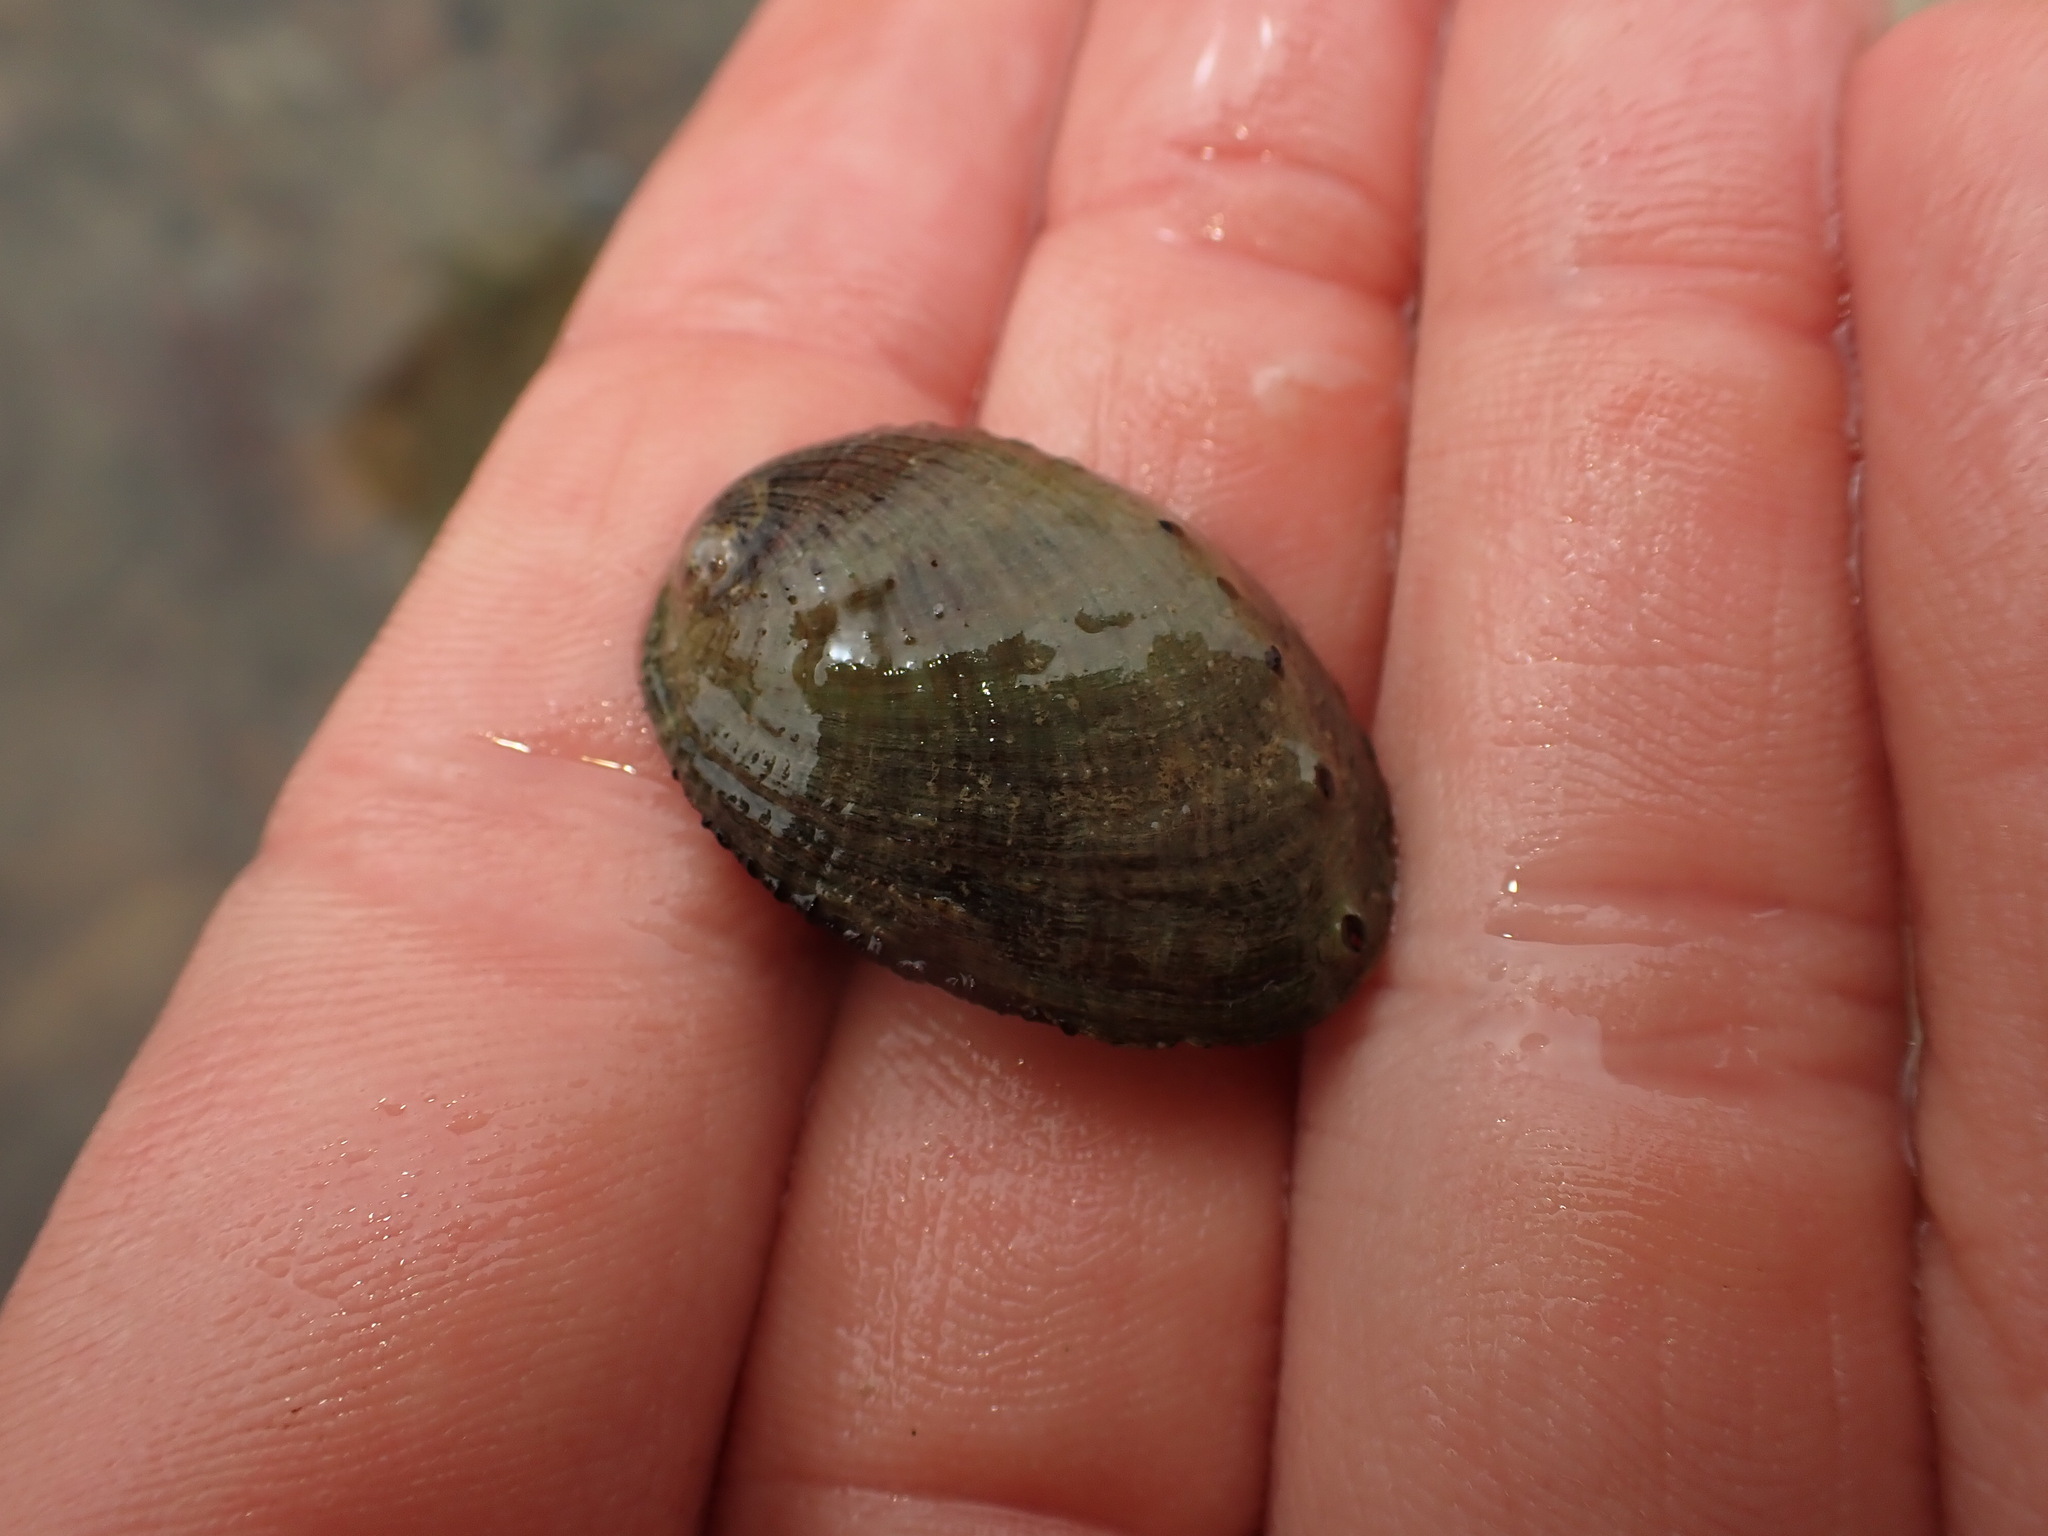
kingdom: Animalia
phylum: Mollusca
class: Gastropoda
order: Lepetellida
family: Haliotidae
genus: Haliotis
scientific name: Haliotis iris
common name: Abalone
